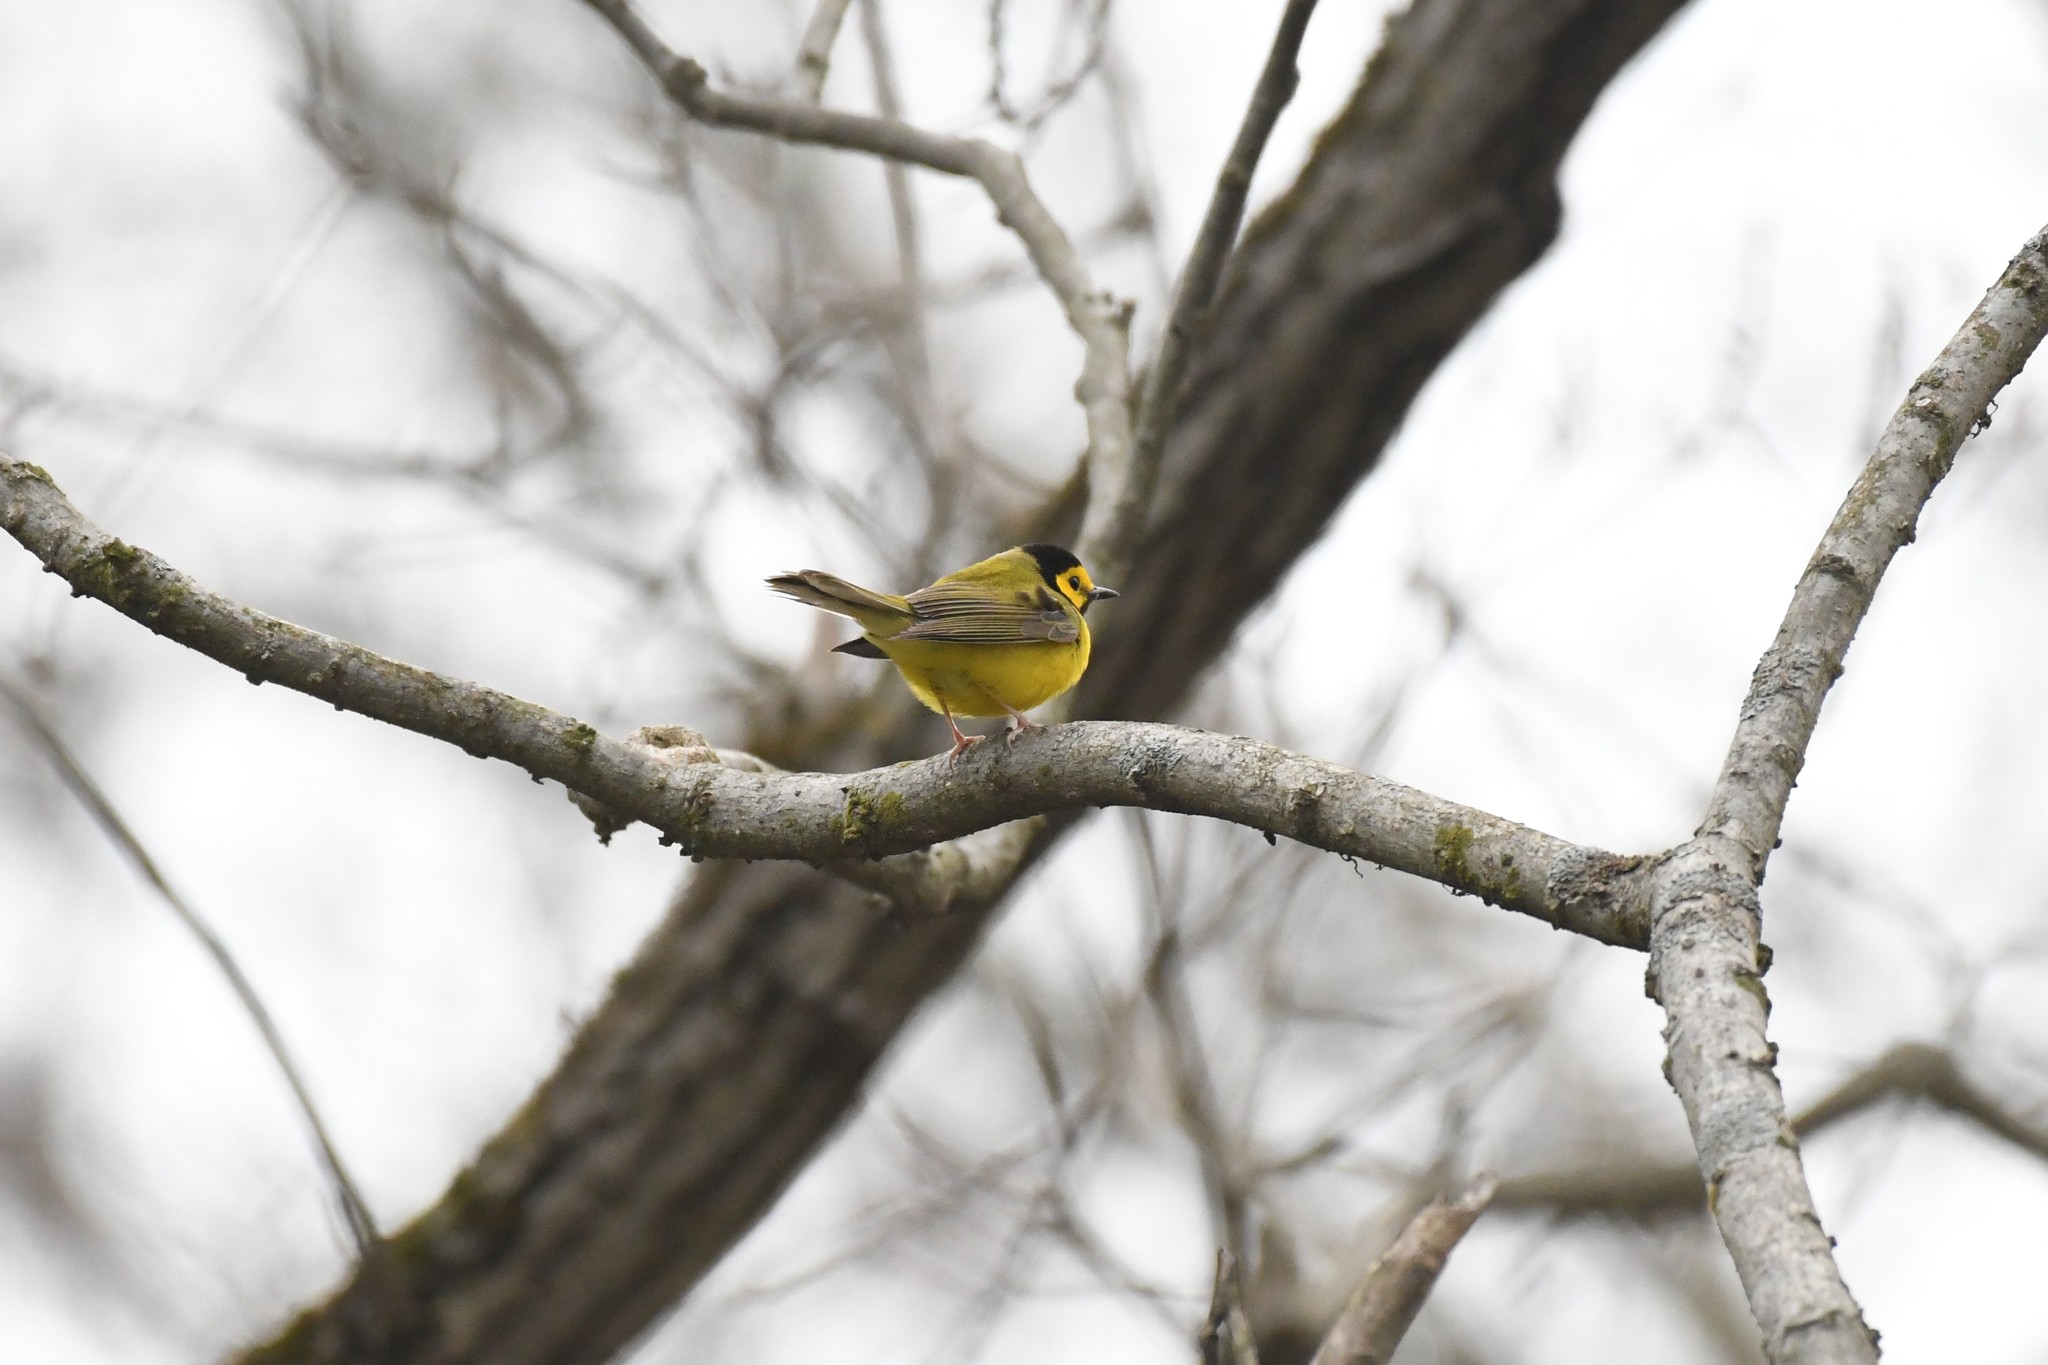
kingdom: Animalia
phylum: Chordata
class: Aves
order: Passeriformes
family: Parulidae
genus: Setophaga
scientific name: Setophaga citrina
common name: Hooded warbler
